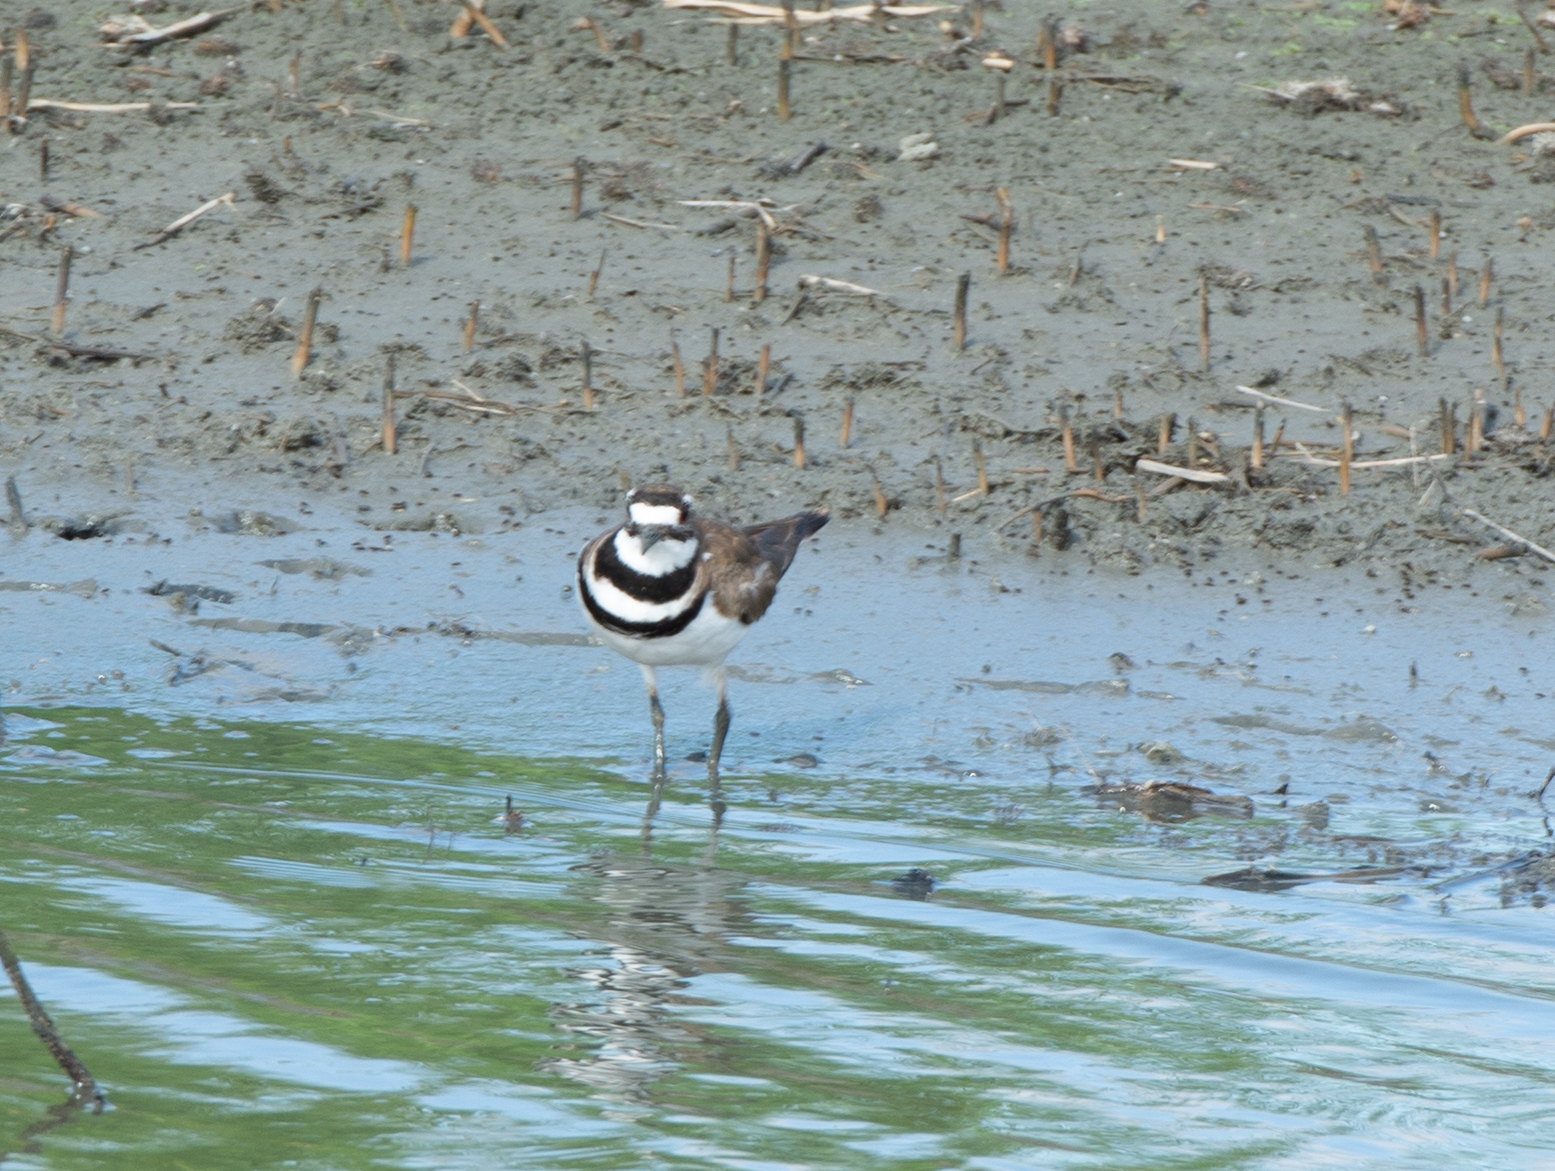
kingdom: Animalia
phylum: Chordata
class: Aves
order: Charadriiformes
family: Charadriidae
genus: Charadrius
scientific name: Charadrius vociferus
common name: Killdeer
